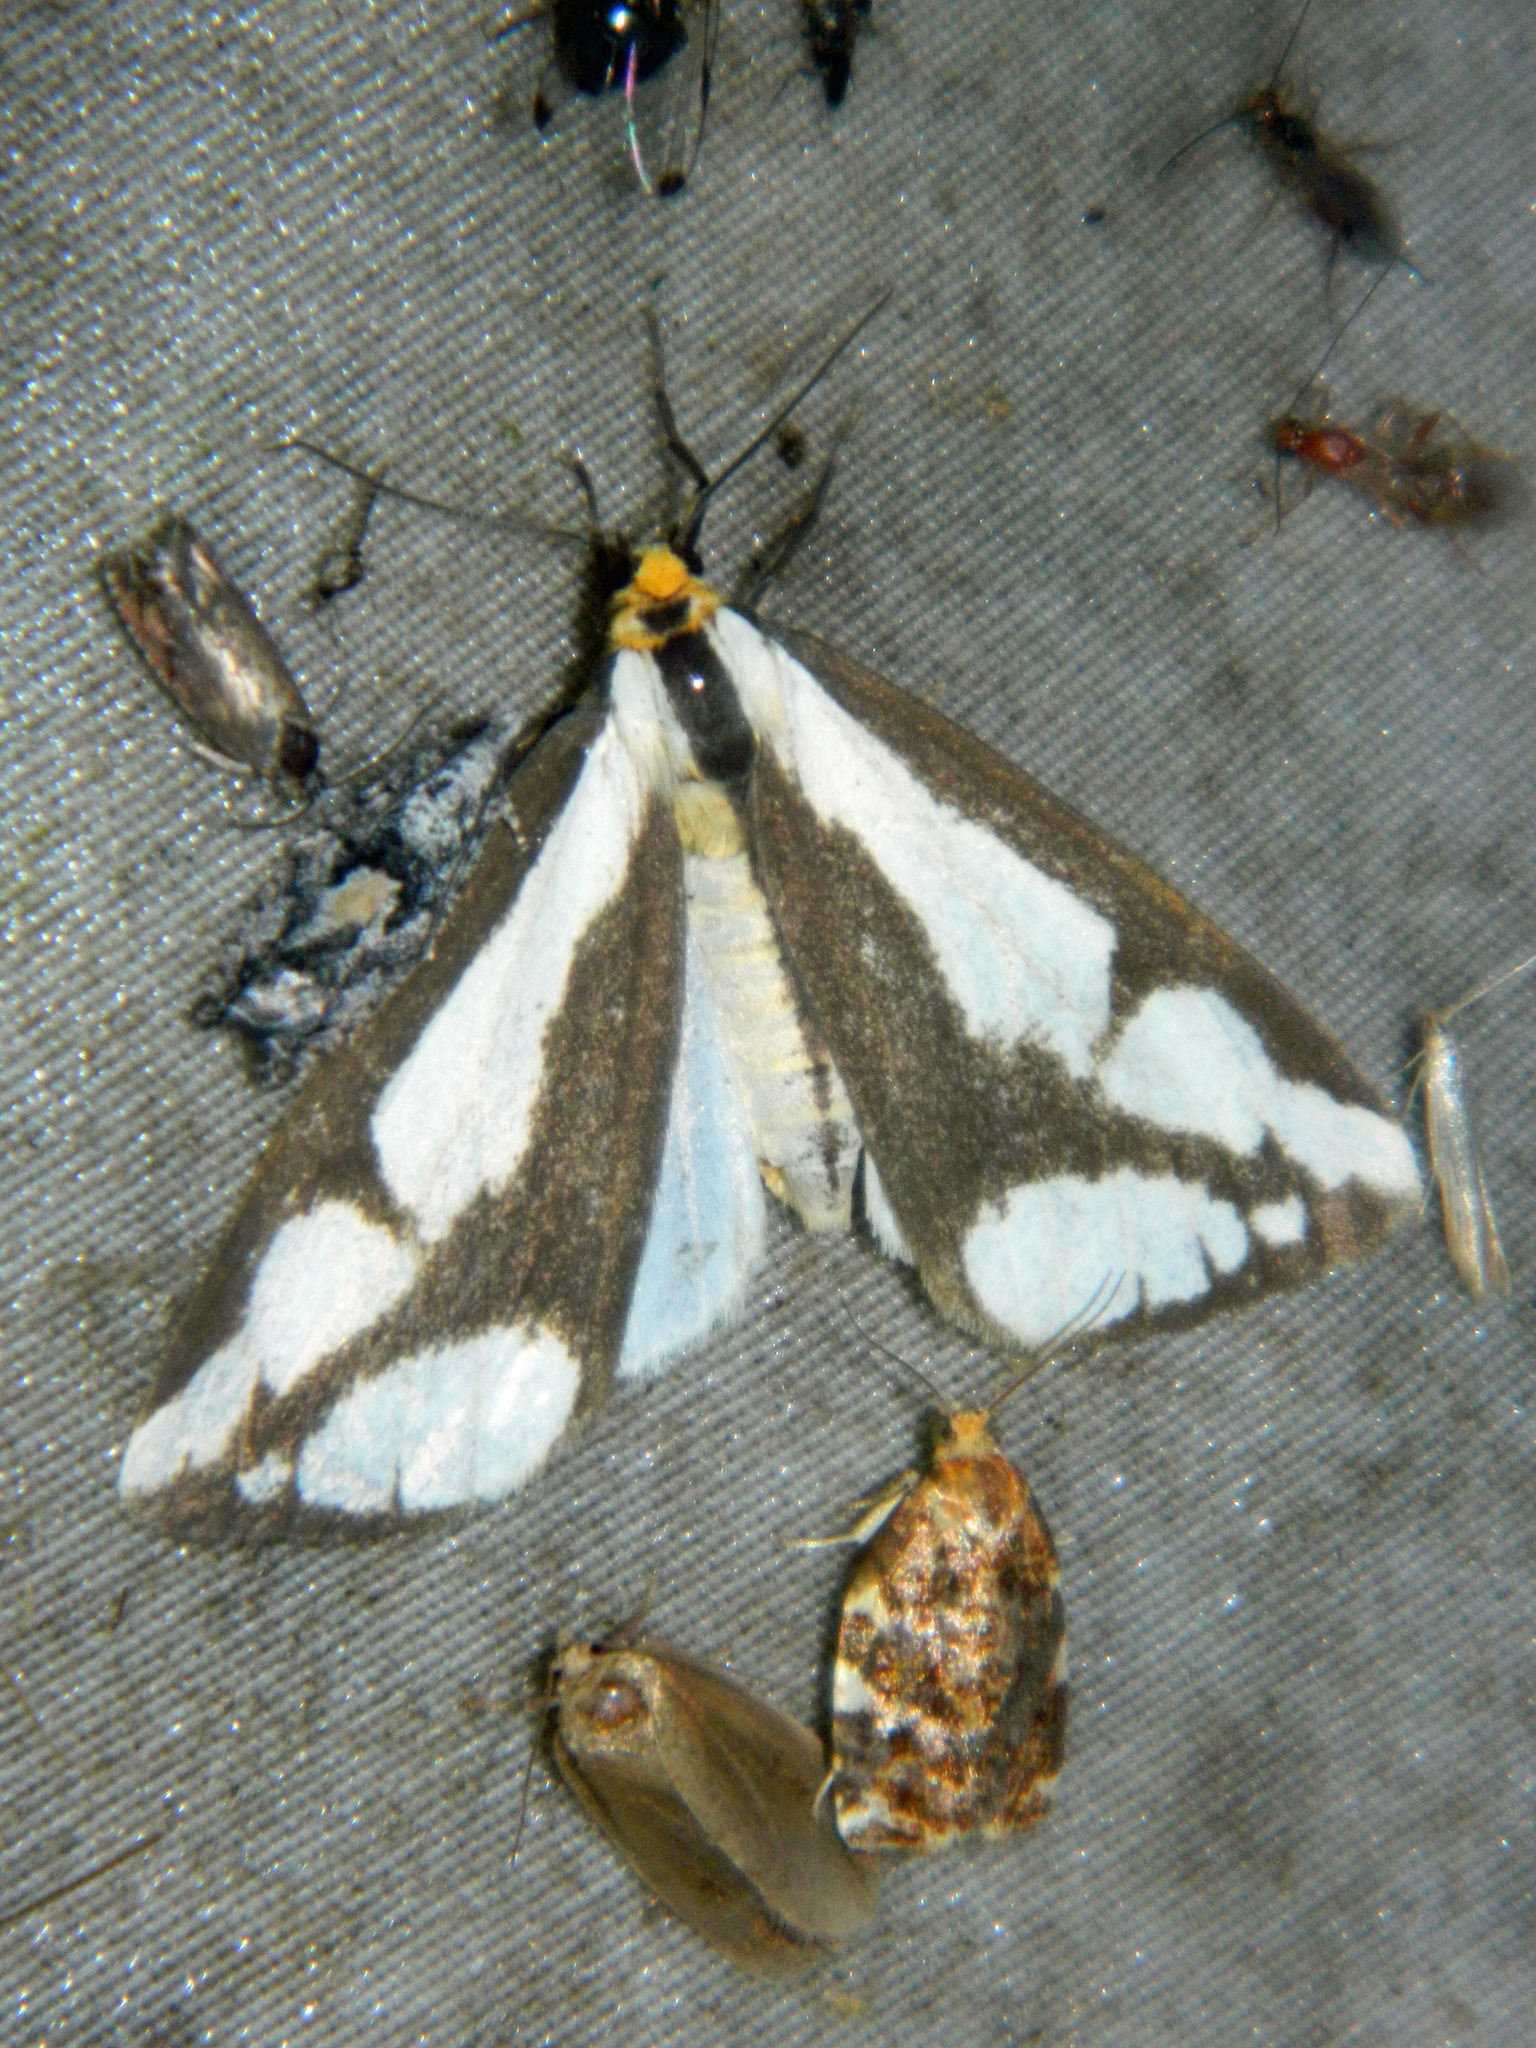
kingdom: Animalia
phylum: Arthropoda
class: Insecta
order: Lepidoptera
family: Erebidae
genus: Haploa
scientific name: Haploa lecontei
